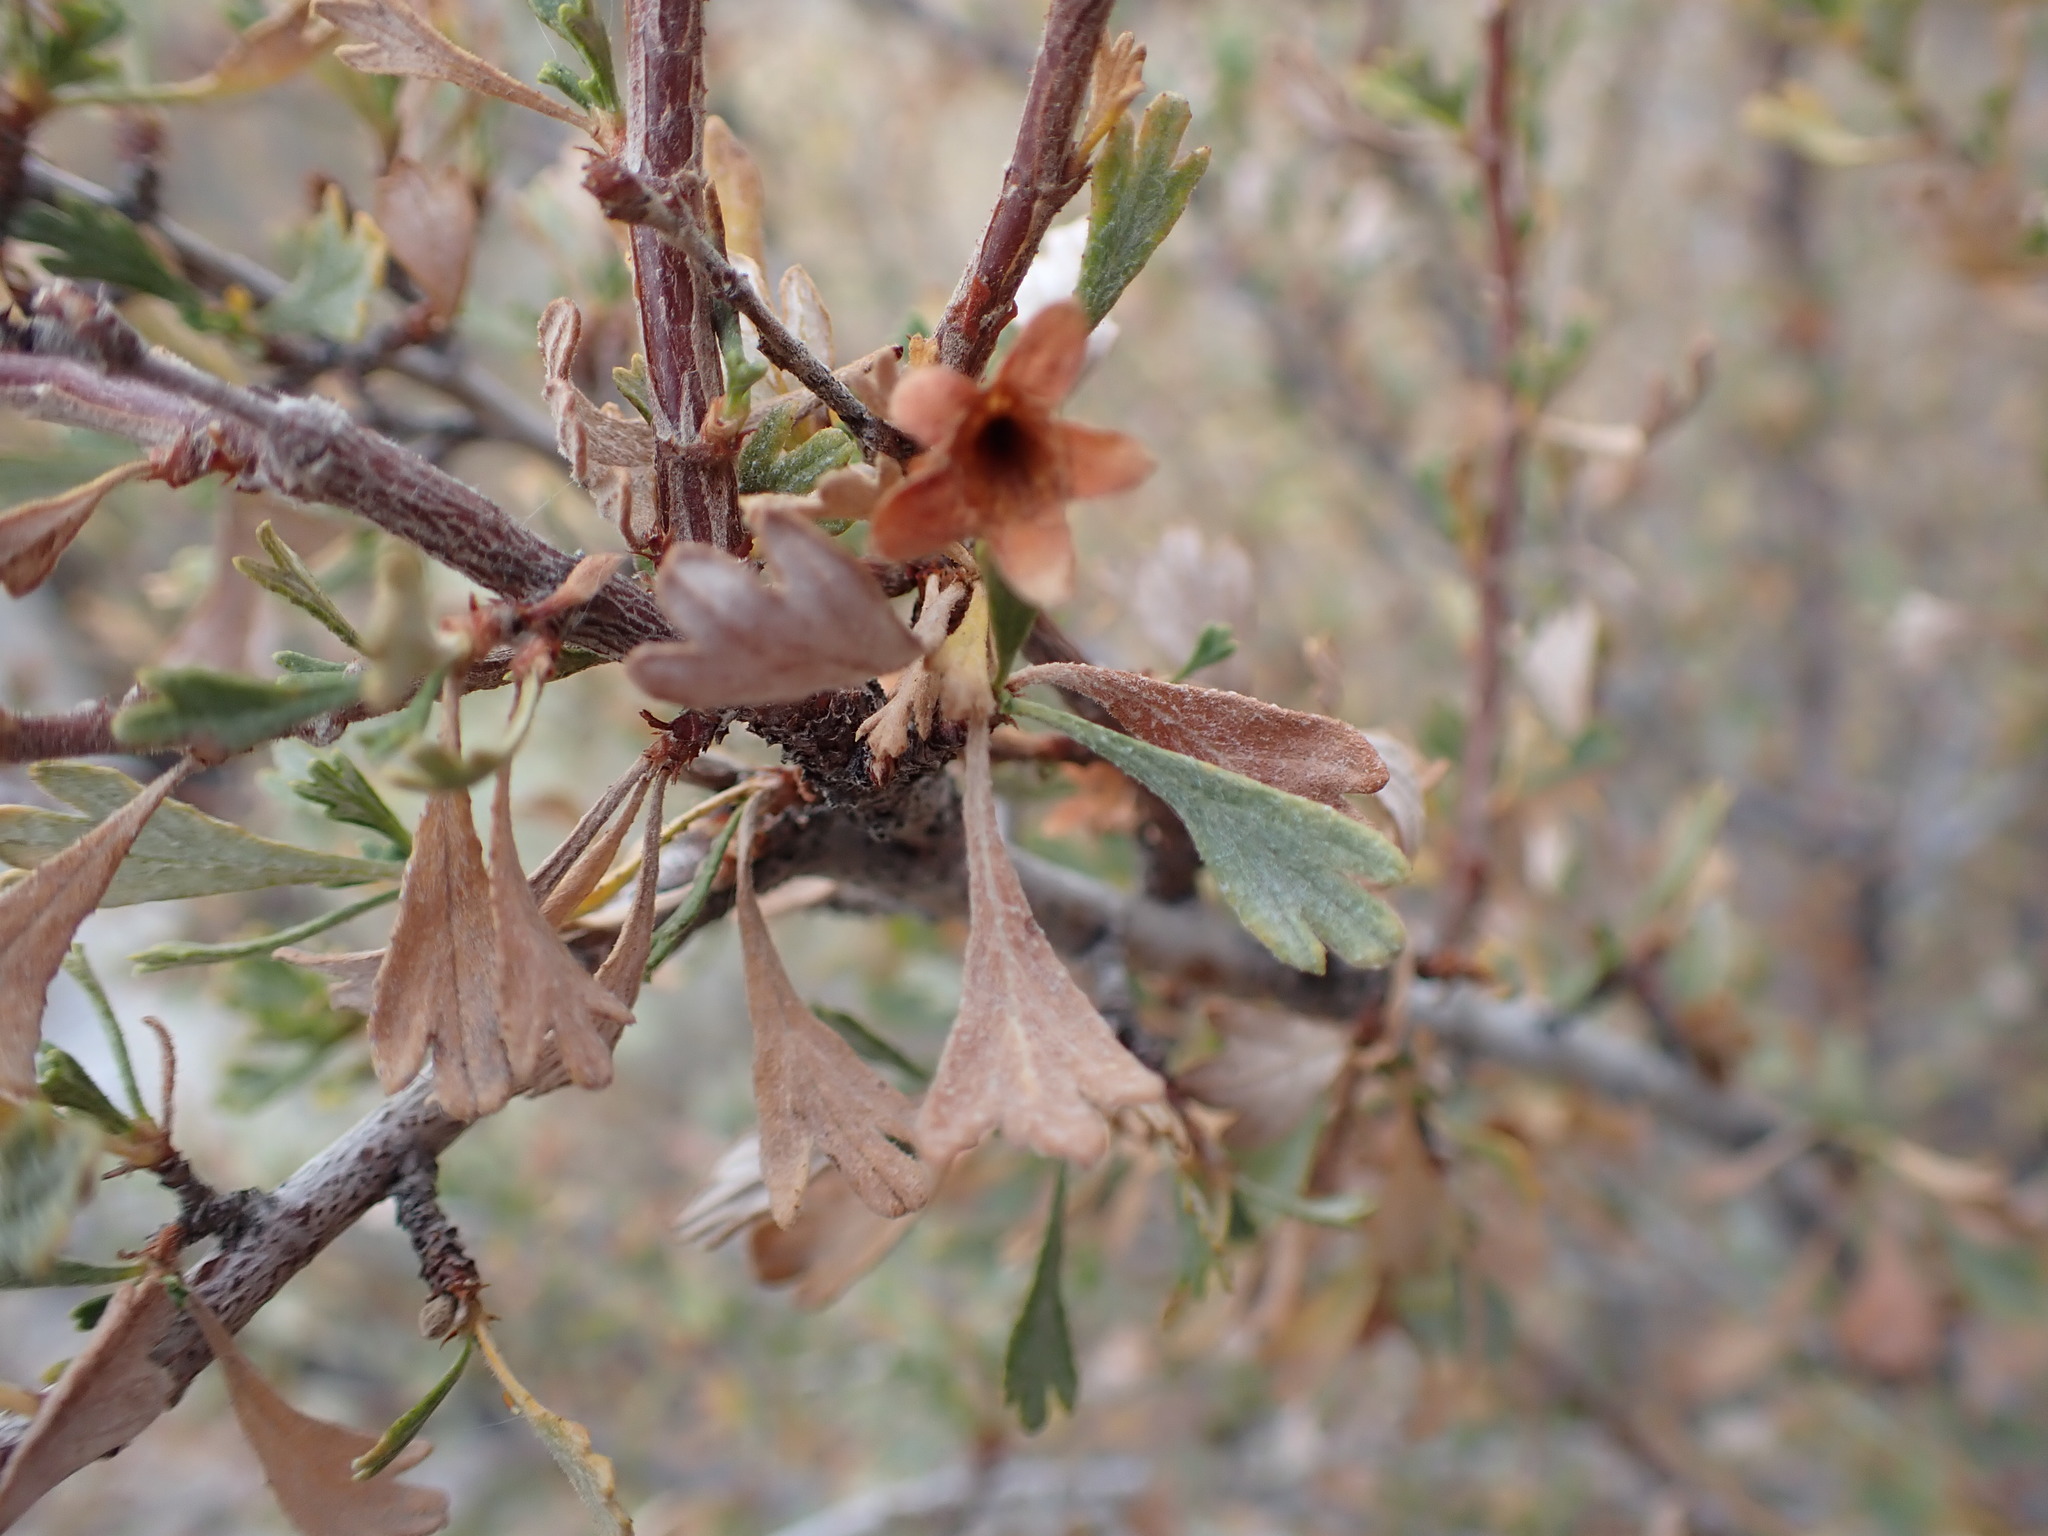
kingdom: Plantae
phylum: Tracheophyta
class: Magnoliopsida
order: Rosales
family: Rosaceae
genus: Purshia
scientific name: Purshia tridentata
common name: Antelope bitterbrush
